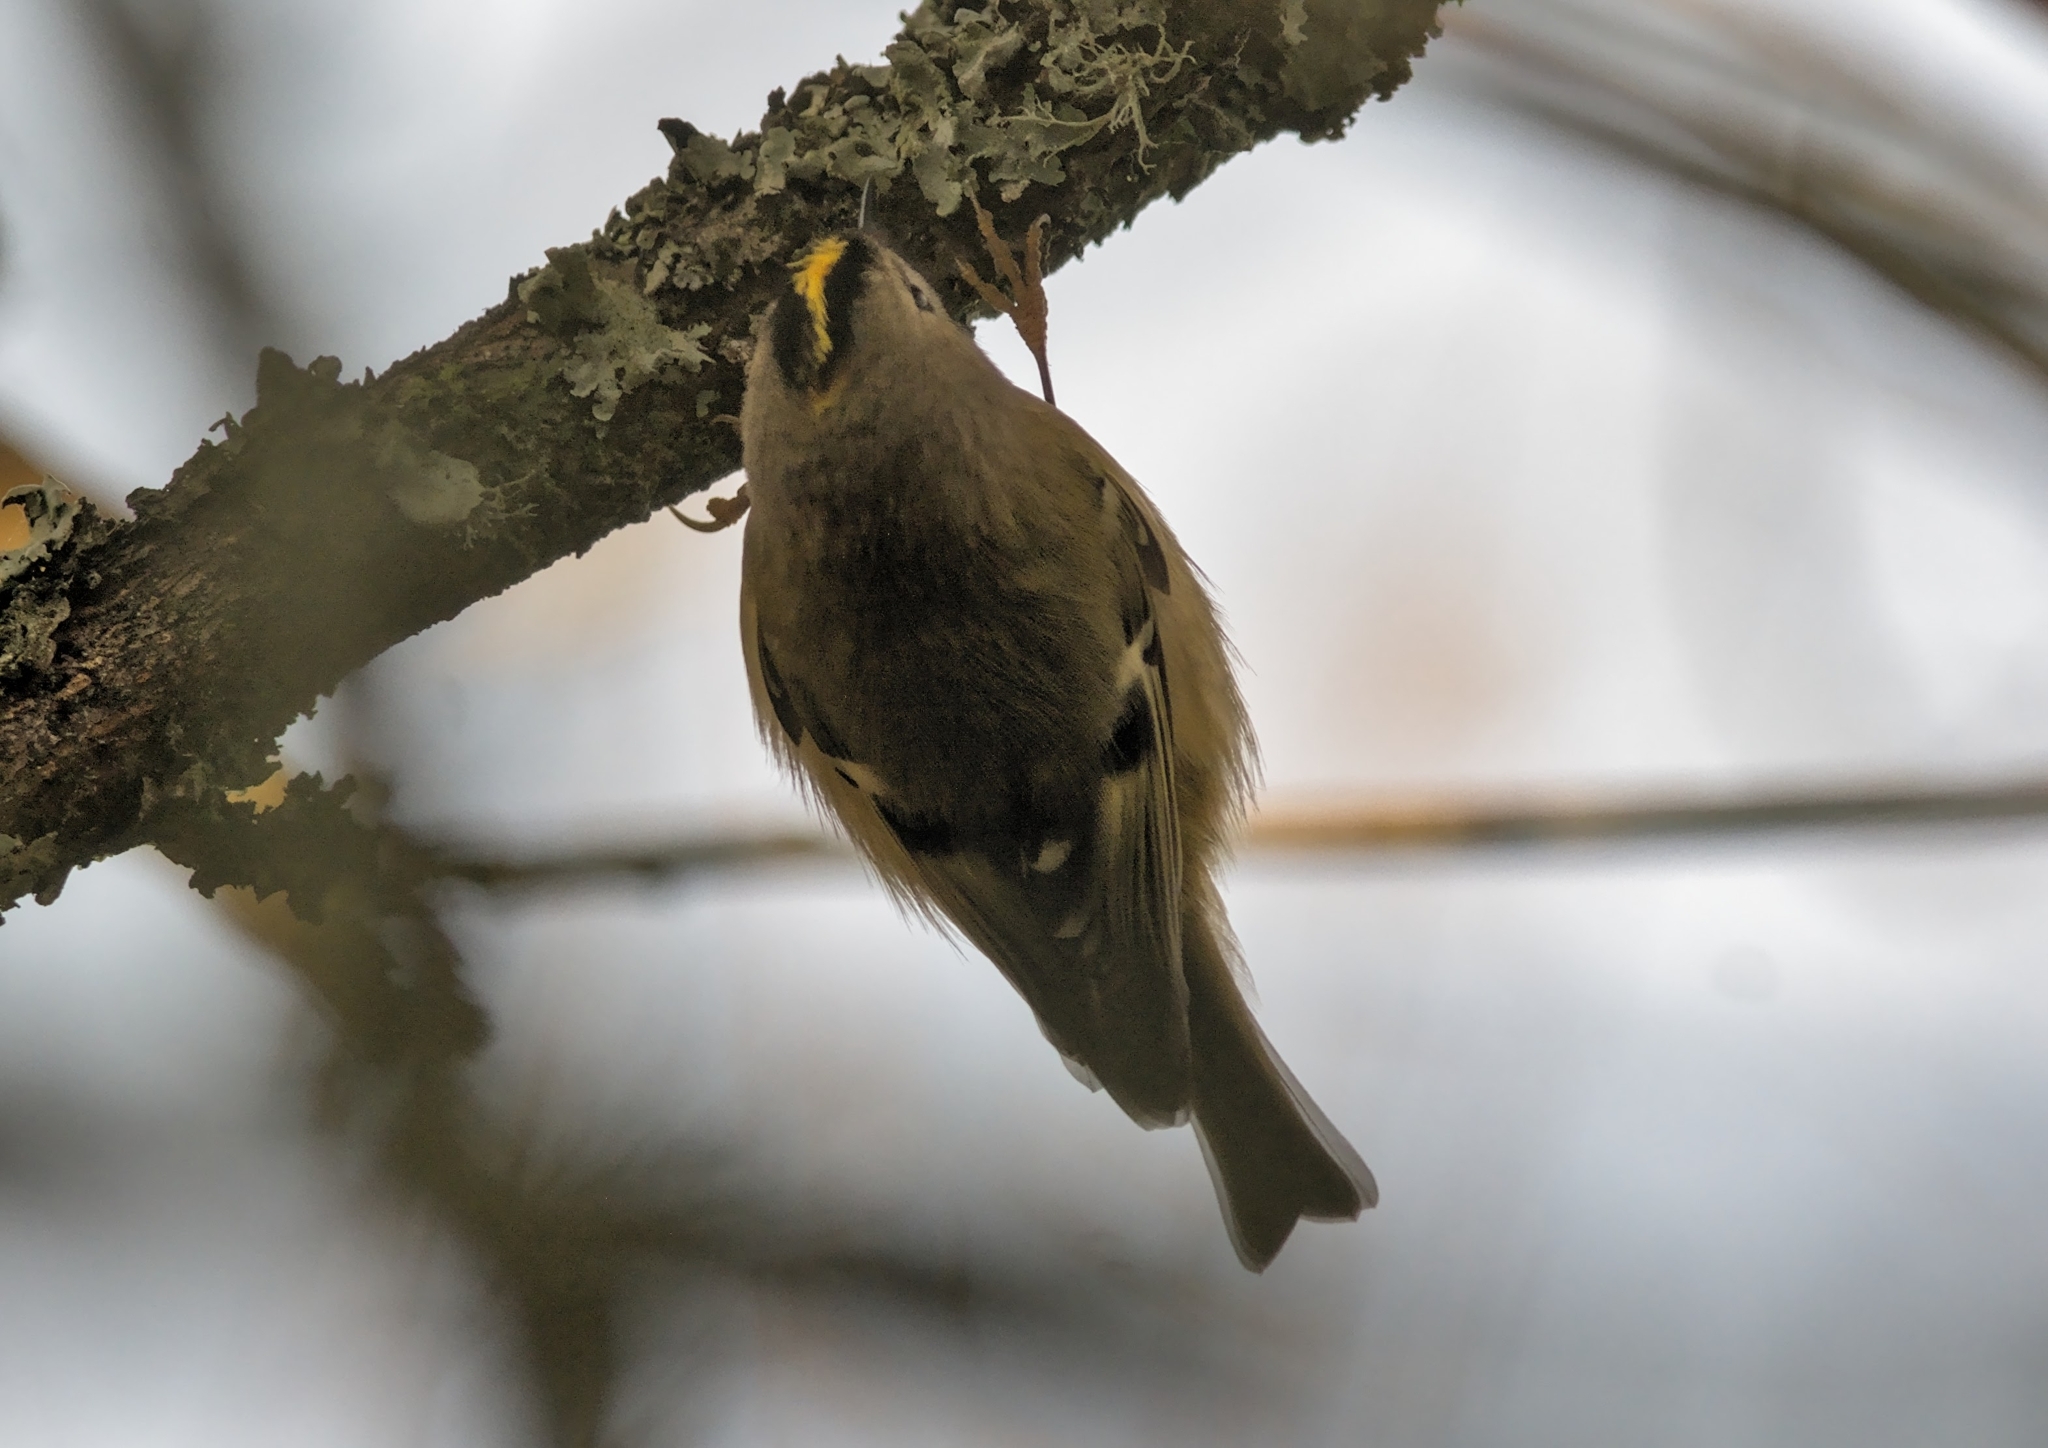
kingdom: Animalia
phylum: Chordata
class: Aves
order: Passeriformes
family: Regulidae
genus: Regulus
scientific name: Regulus regulus
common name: Goldcrest
